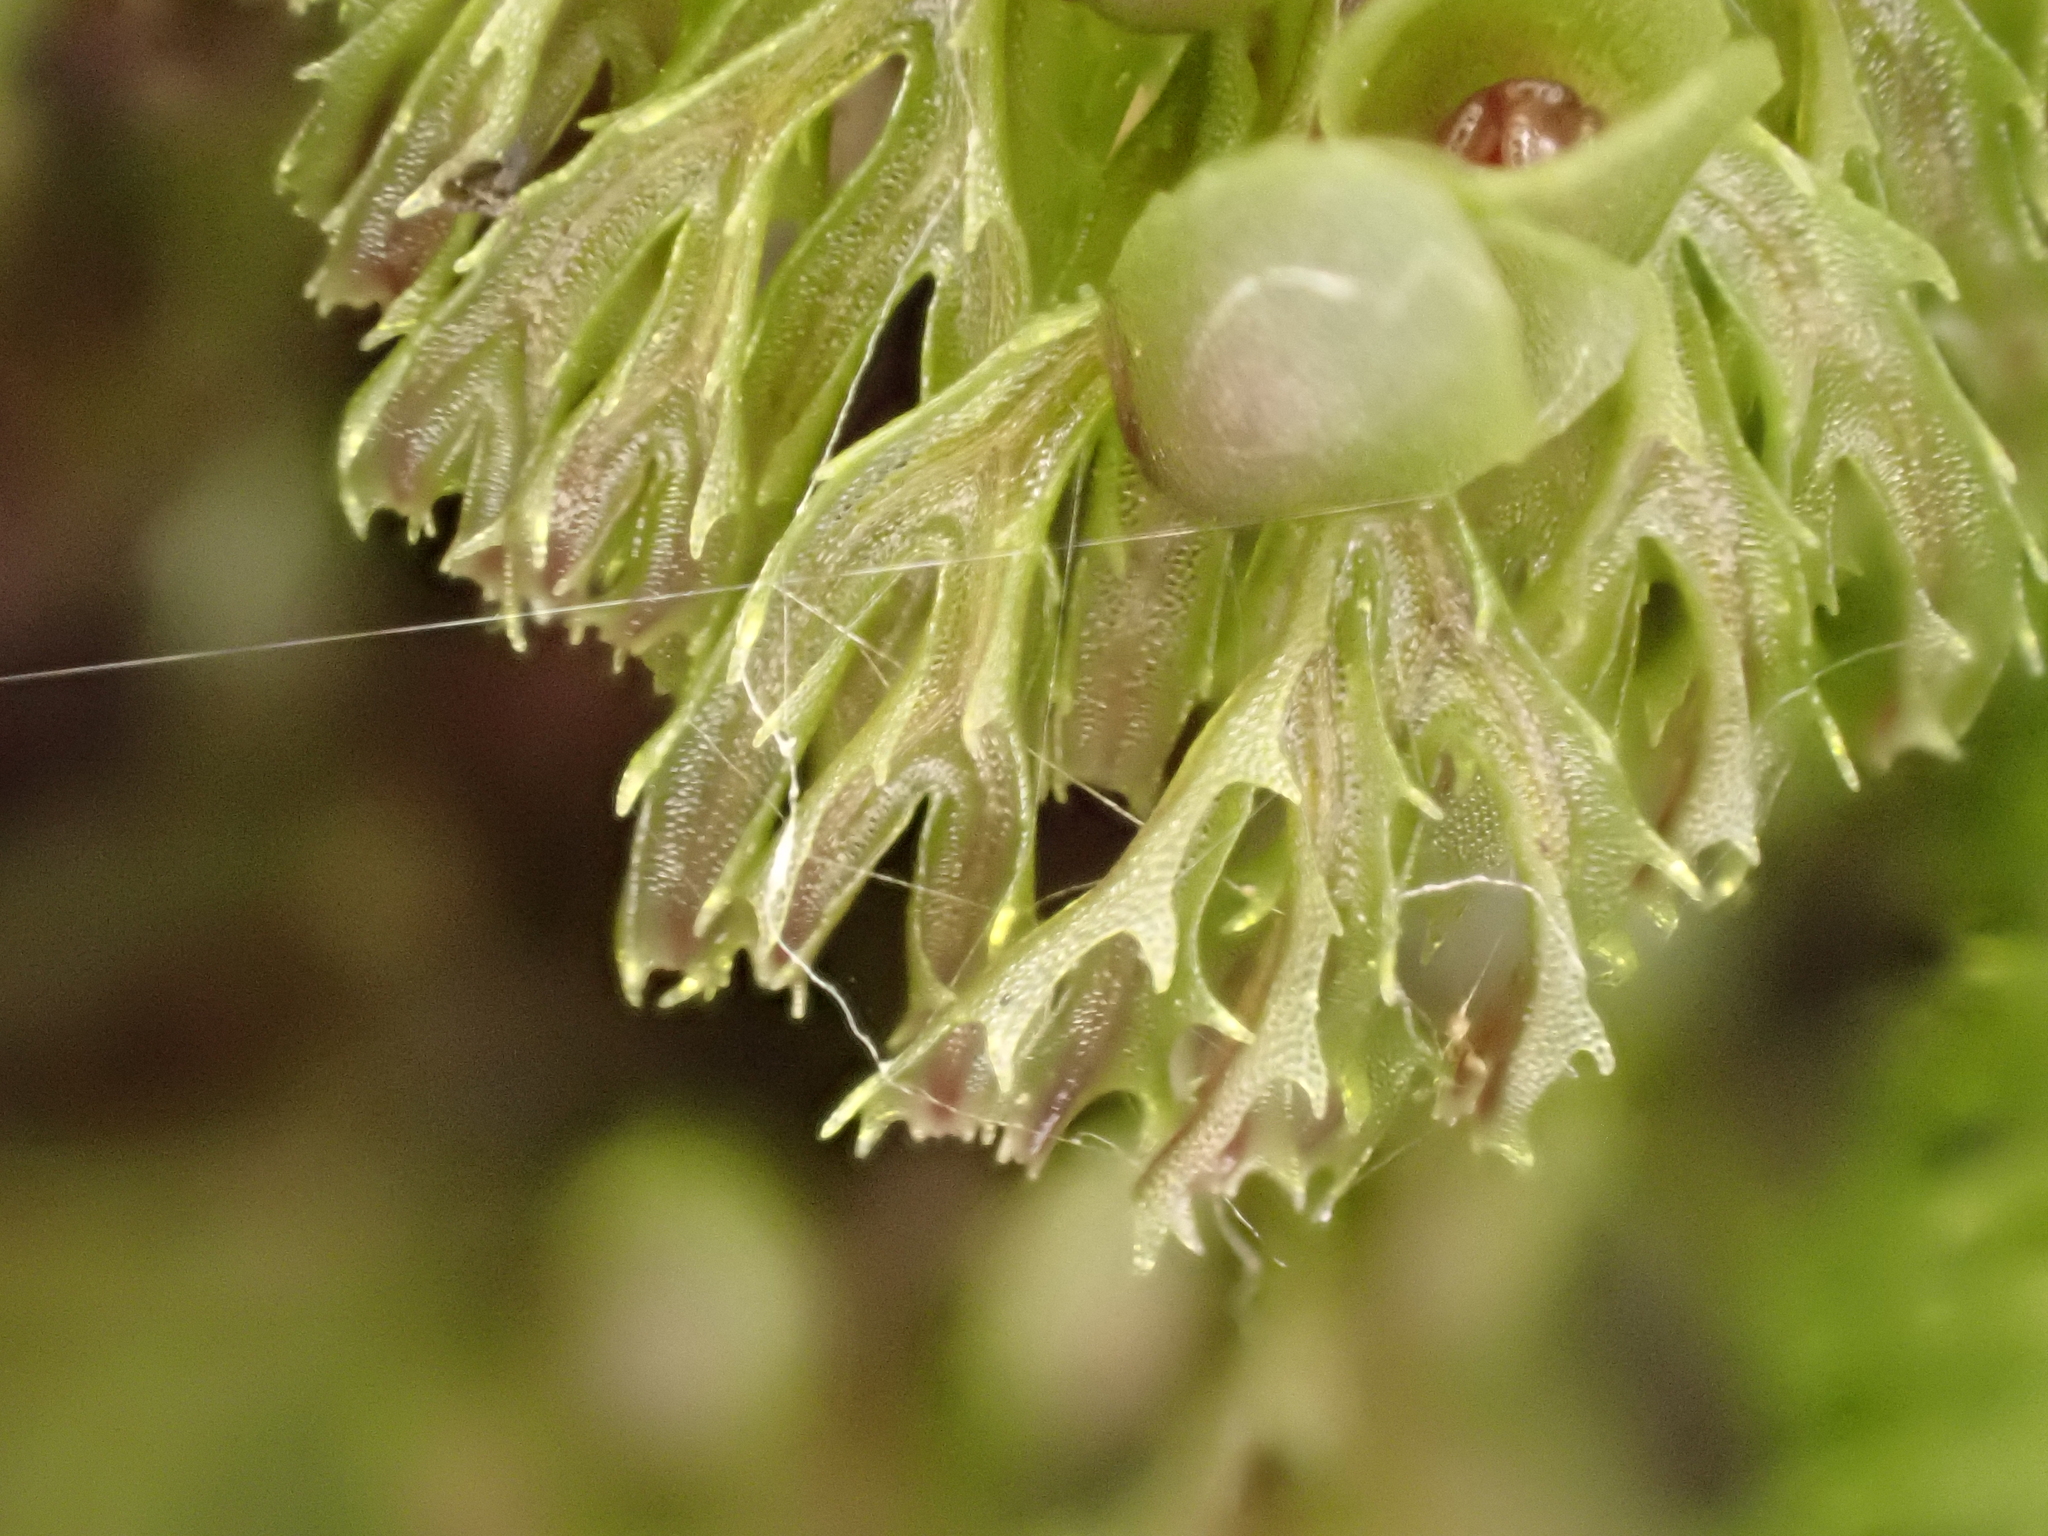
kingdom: Plantae
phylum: Tracheophyta
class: Polypodiopsida
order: Hymenophyllales
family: Hymenophyllaceae
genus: Hymenophyllum
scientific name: Hymenophyllum multifidum
